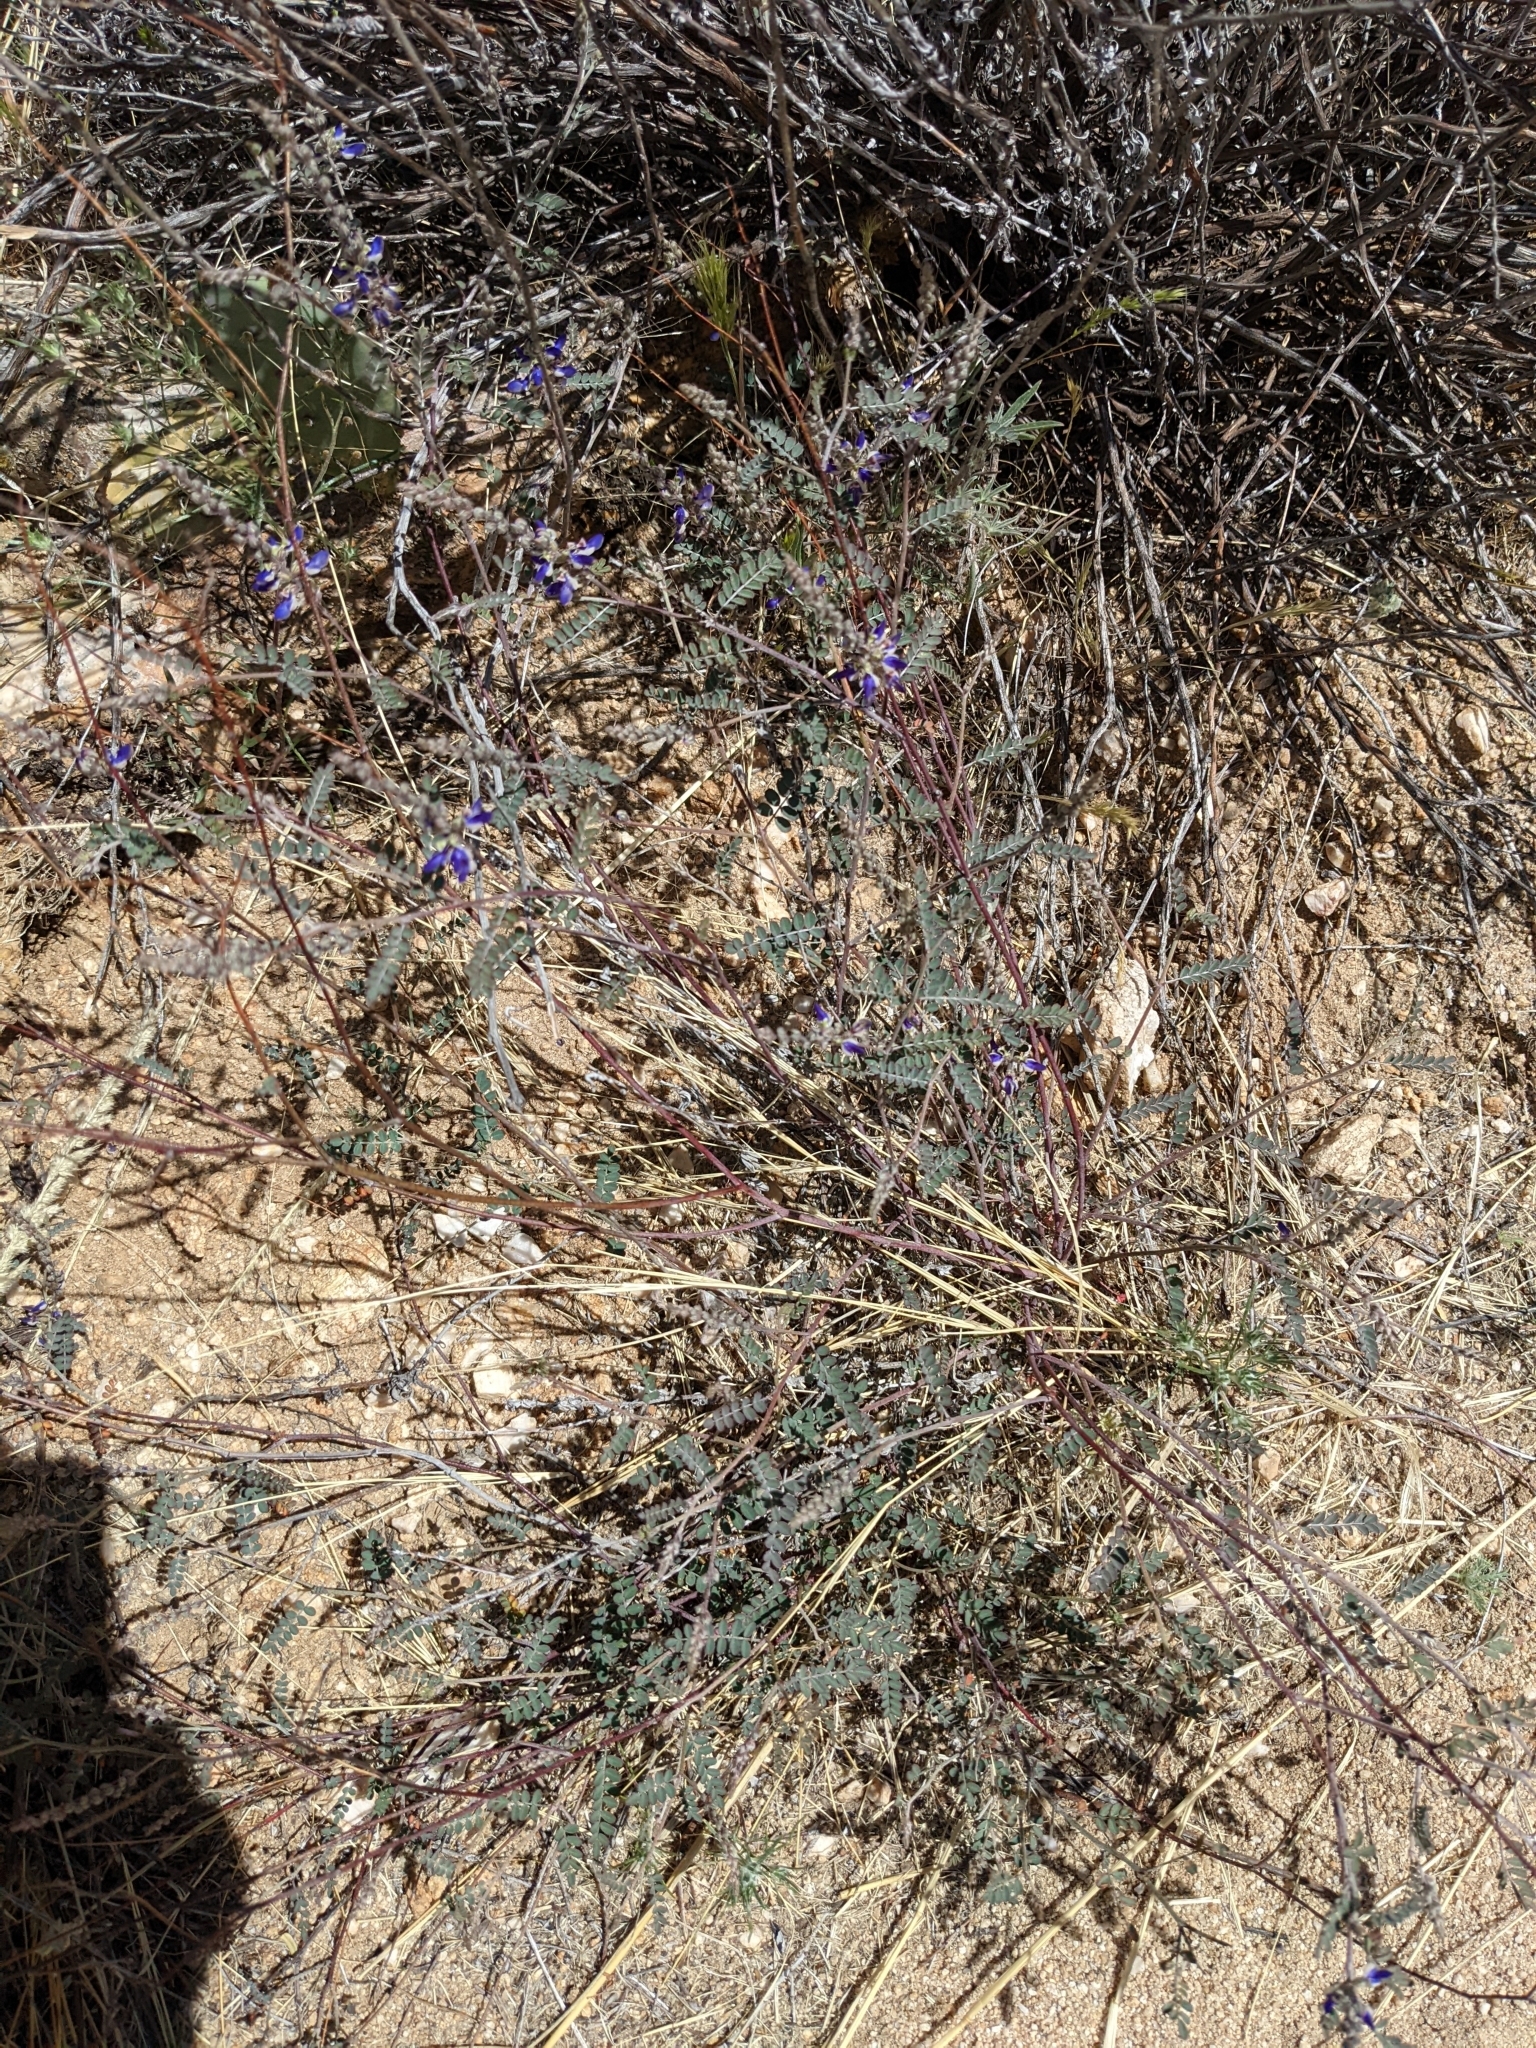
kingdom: Plantae
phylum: Tracheophyta
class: Magnoliopsida
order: Fabales
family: Fabaceae
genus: Marina
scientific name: Marina parryi
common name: Parry's marina
